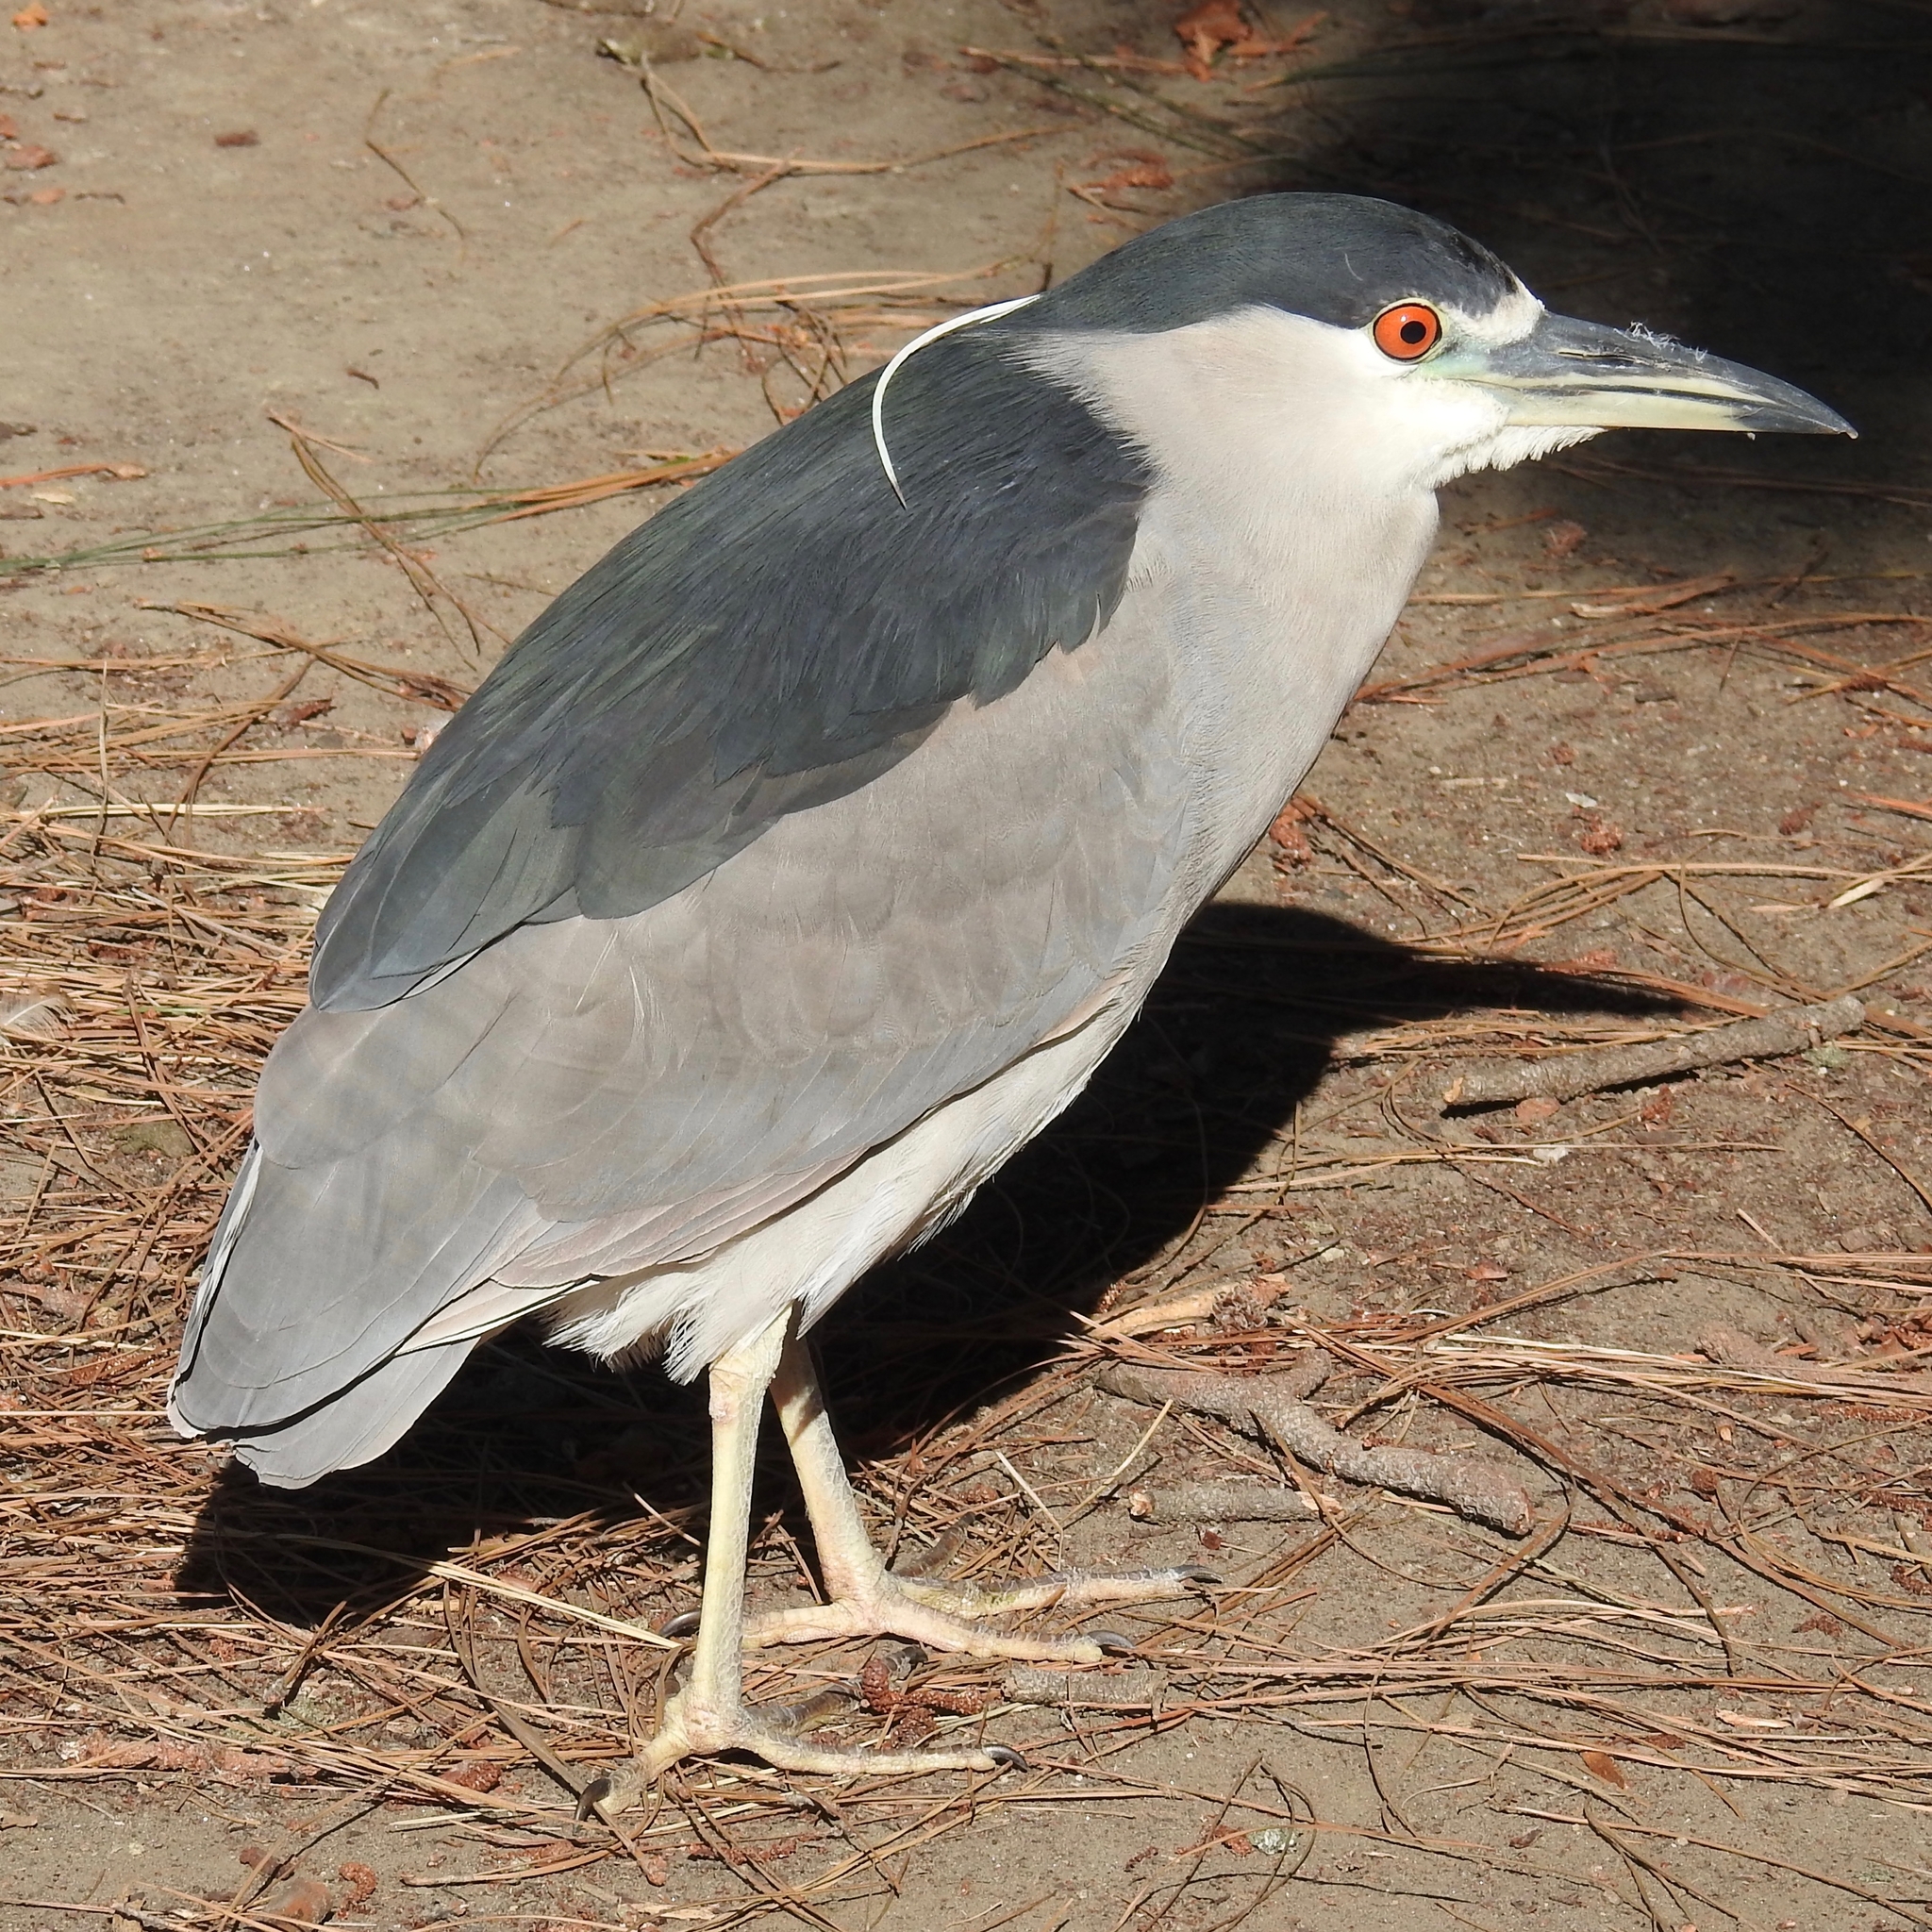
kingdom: Animalia
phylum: Chordata
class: Aves
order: Pelecaniformes
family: Ardeidae
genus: Nycticorax
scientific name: Nycticorax nycticorax
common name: Black-crowned night heron
